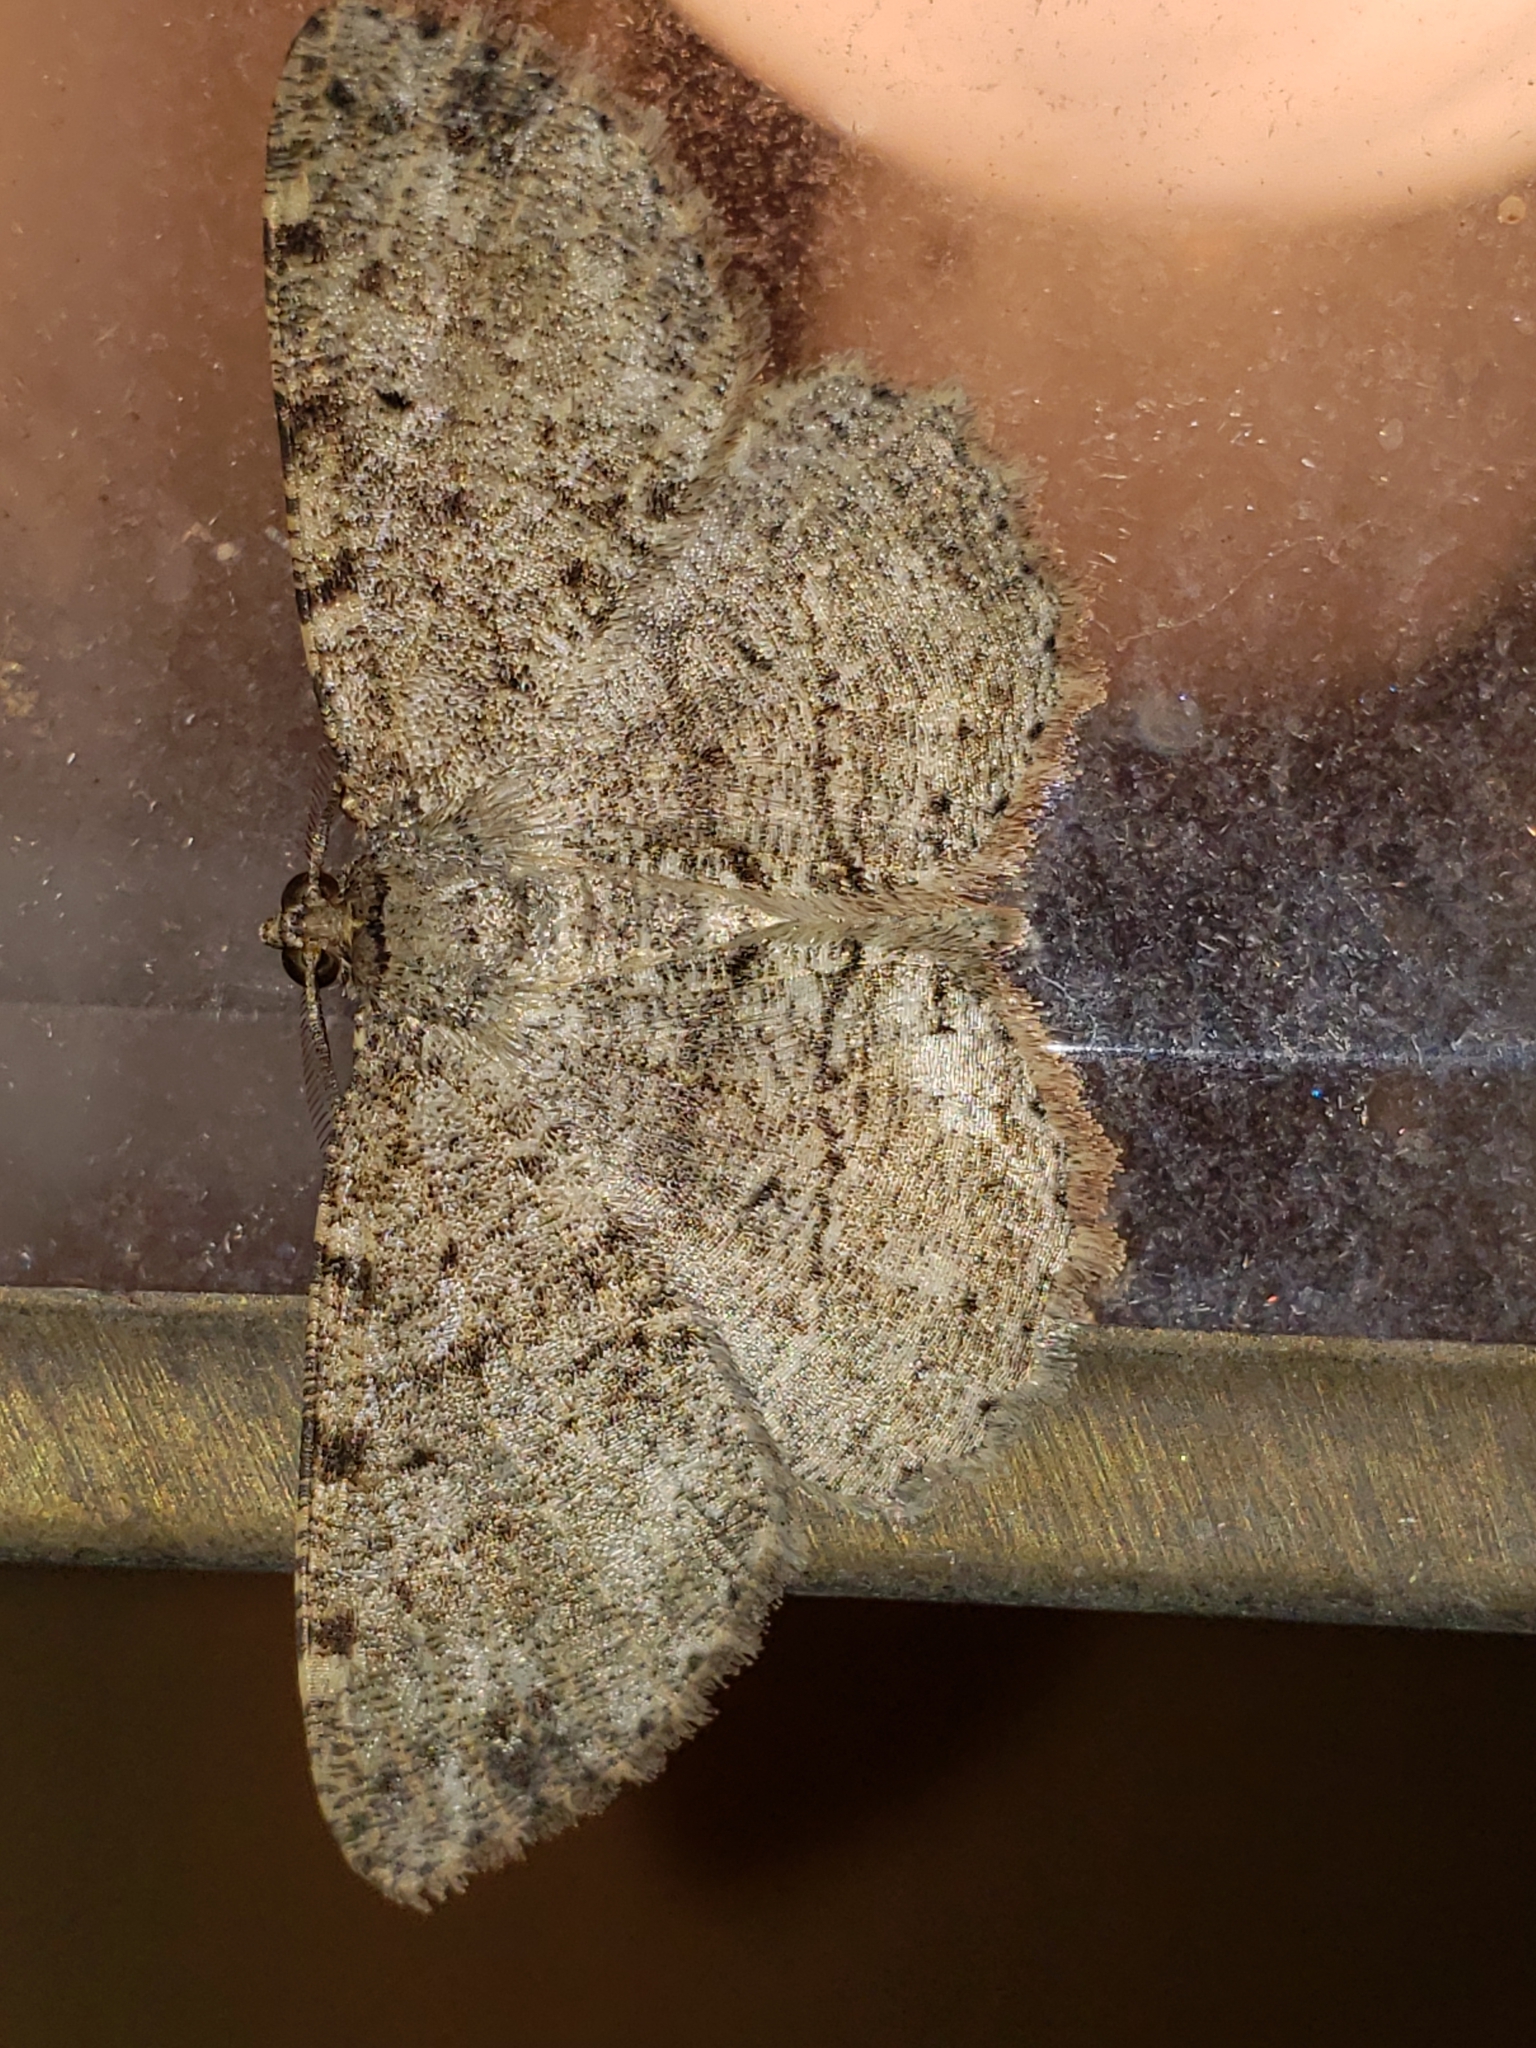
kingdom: Animalia
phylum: Arthropoda
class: Insecta
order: Lepidoptera
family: Geometridae
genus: Melanolophia
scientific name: Melanolophia canadaria
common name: Canadian melanolophia
